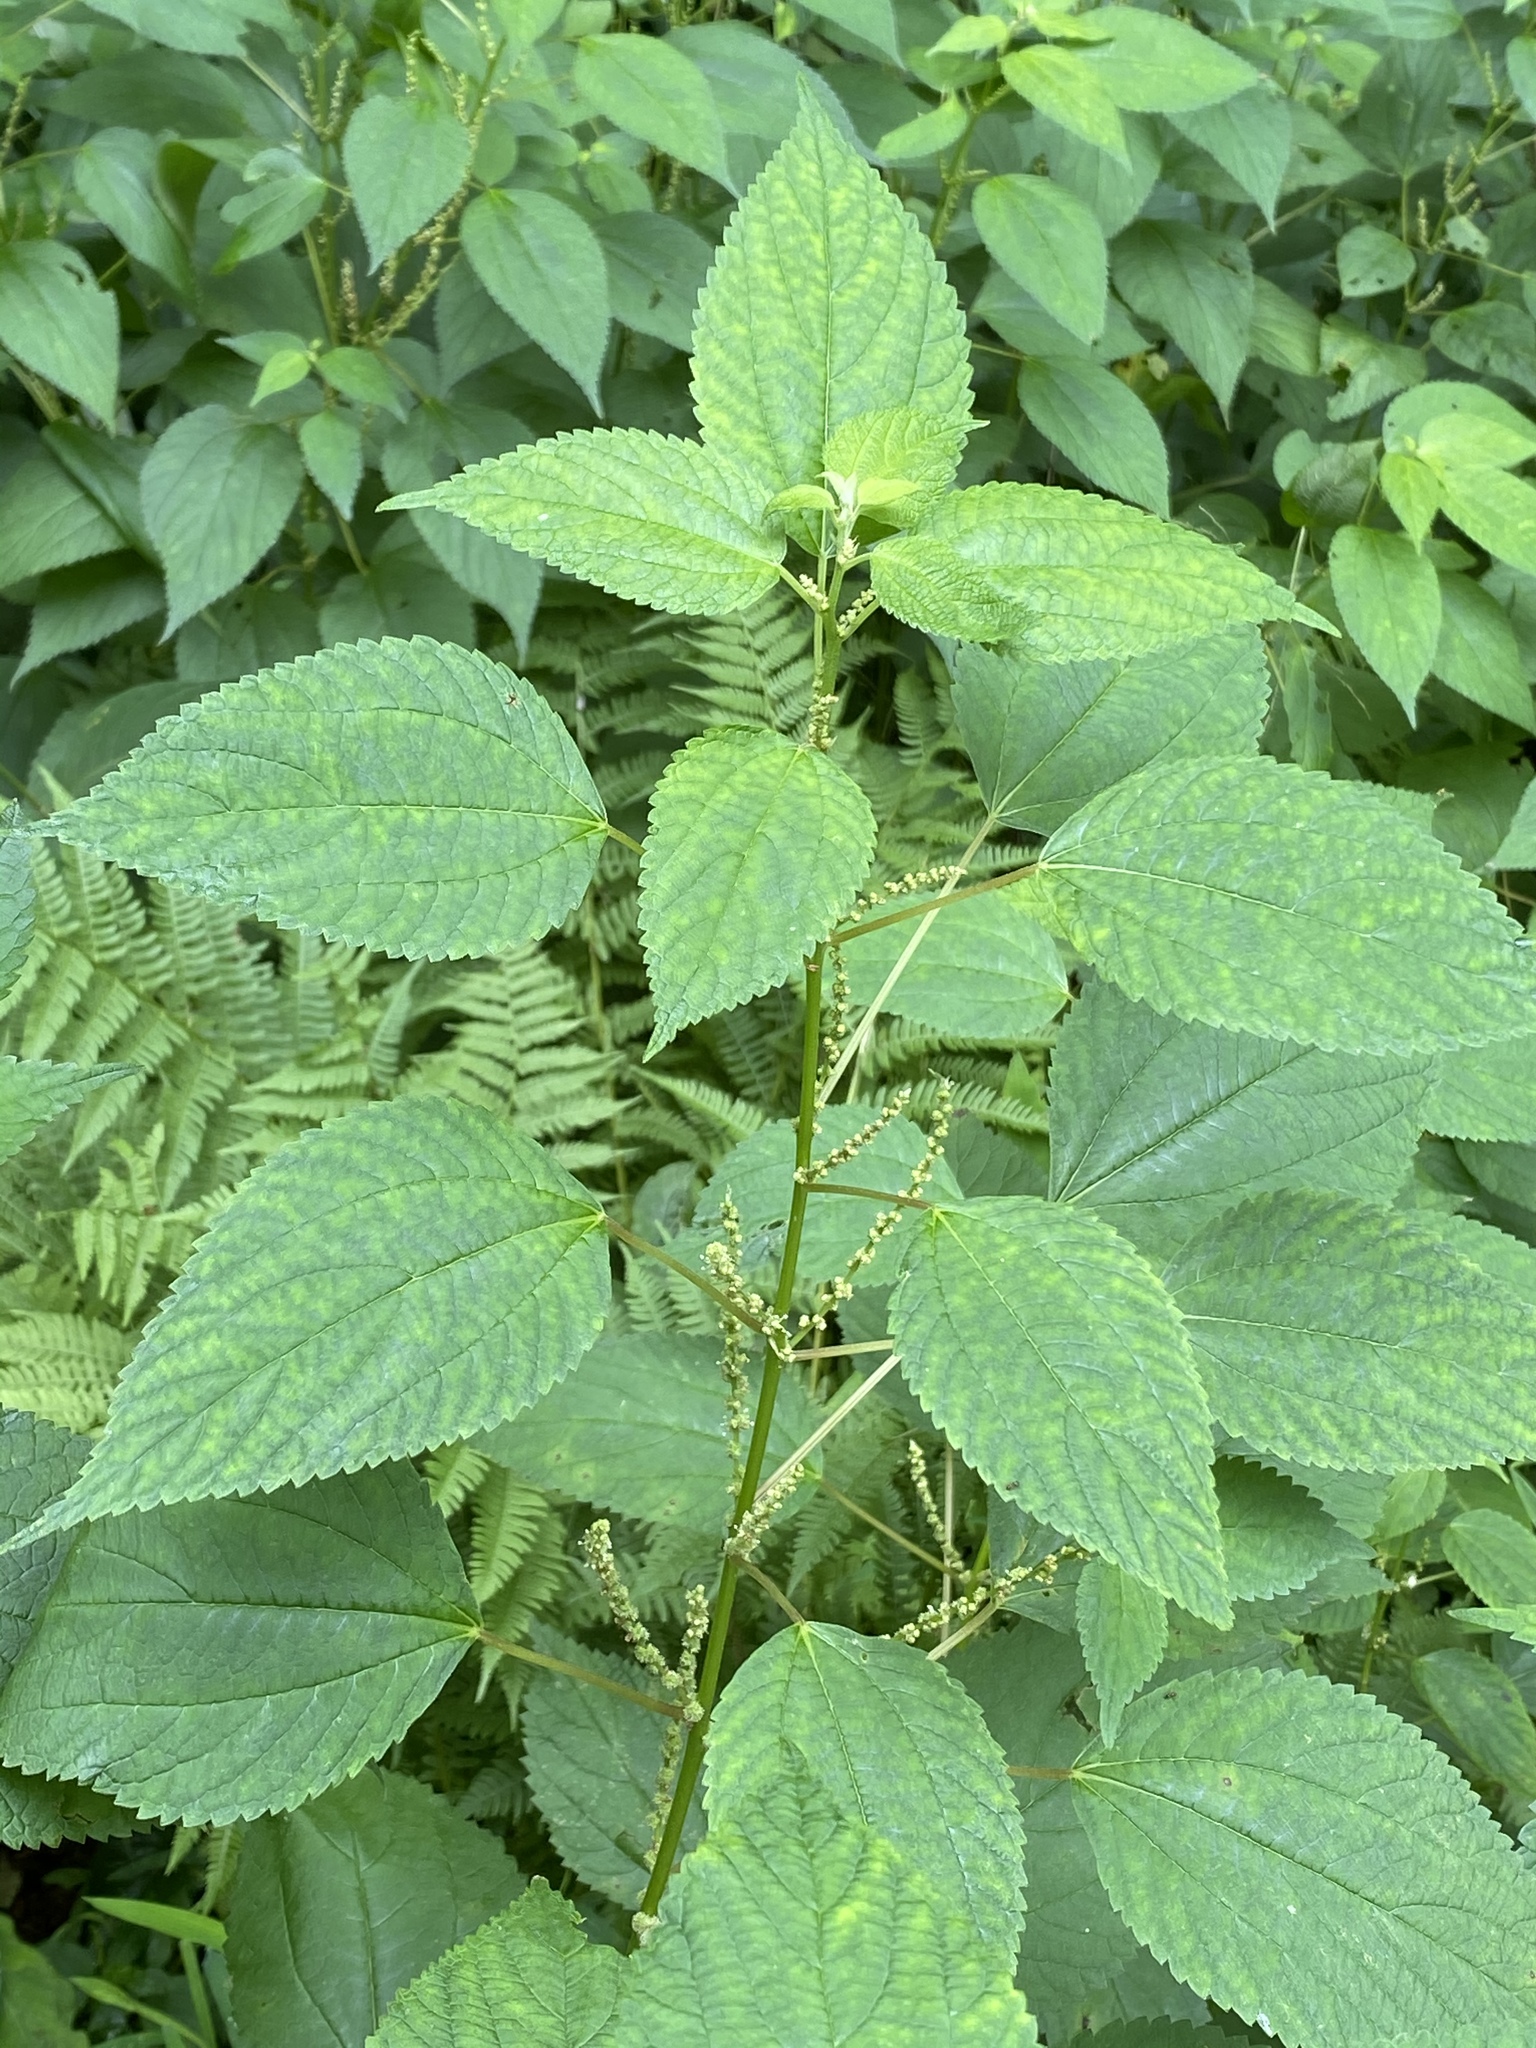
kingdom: Plantae
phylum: Tracheophyta
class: Magnoliopsida
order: Rosales
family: Urticaceae
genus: Boehmeria
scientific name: Boehmeria cylindrica
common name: Bog-hemp
